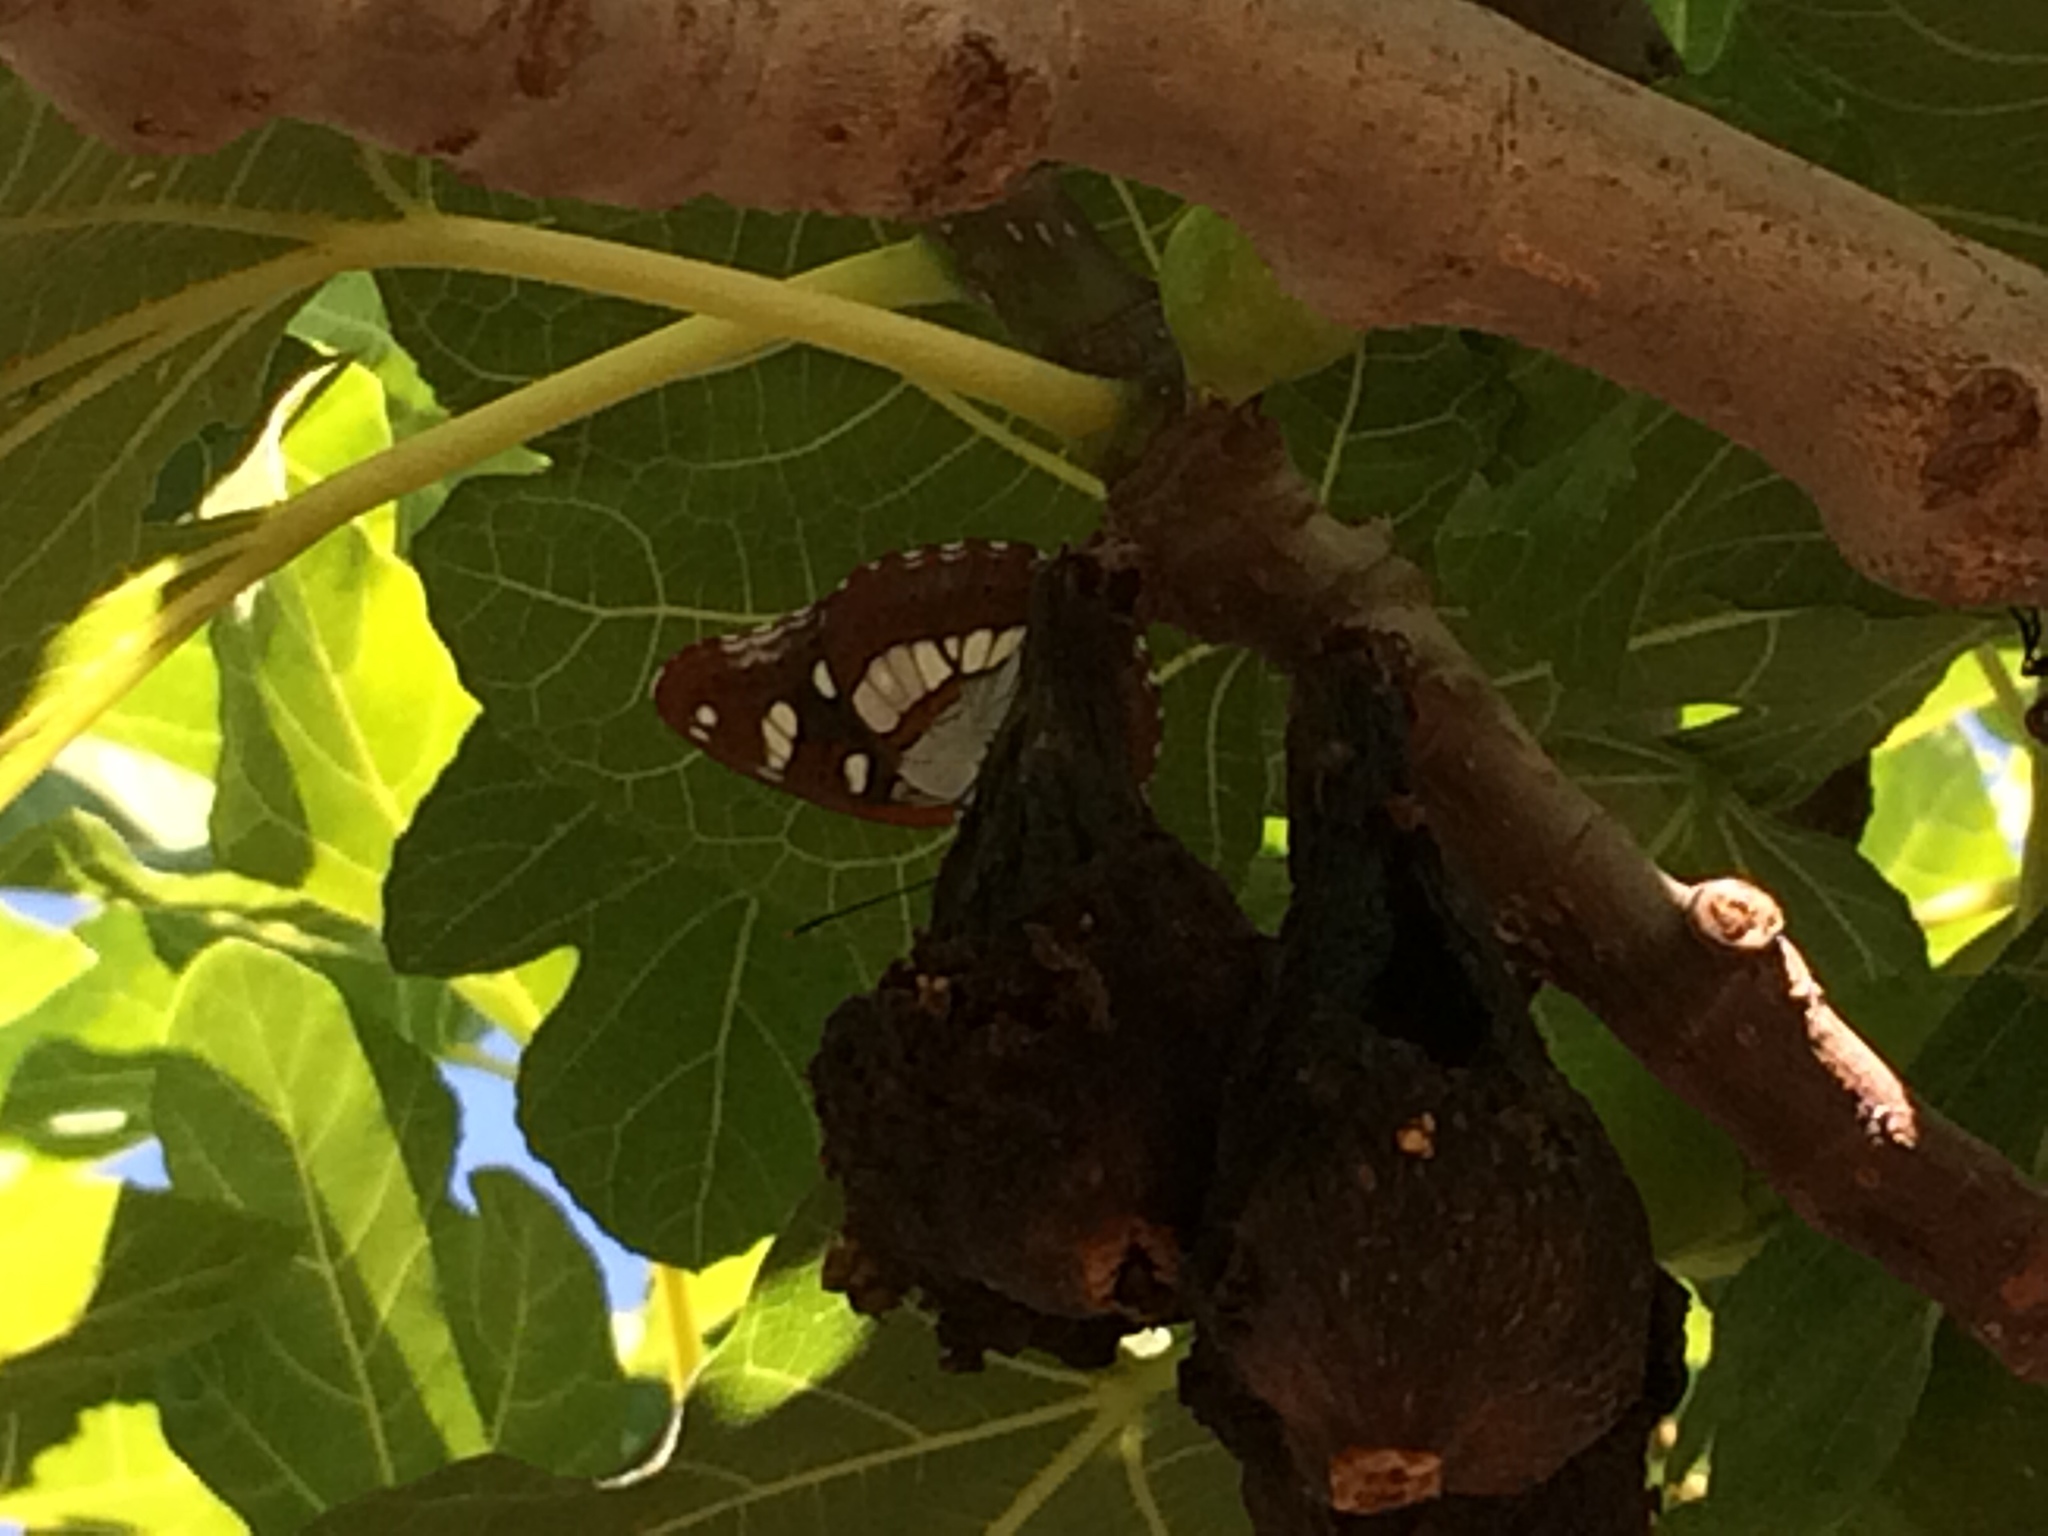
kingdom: Animalia
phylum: Arthropoda
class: Insecta
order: Lepidoptera
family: Nymphalidae
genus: Limenitis
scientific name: Limenitis reducta
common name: Southern white admiral
